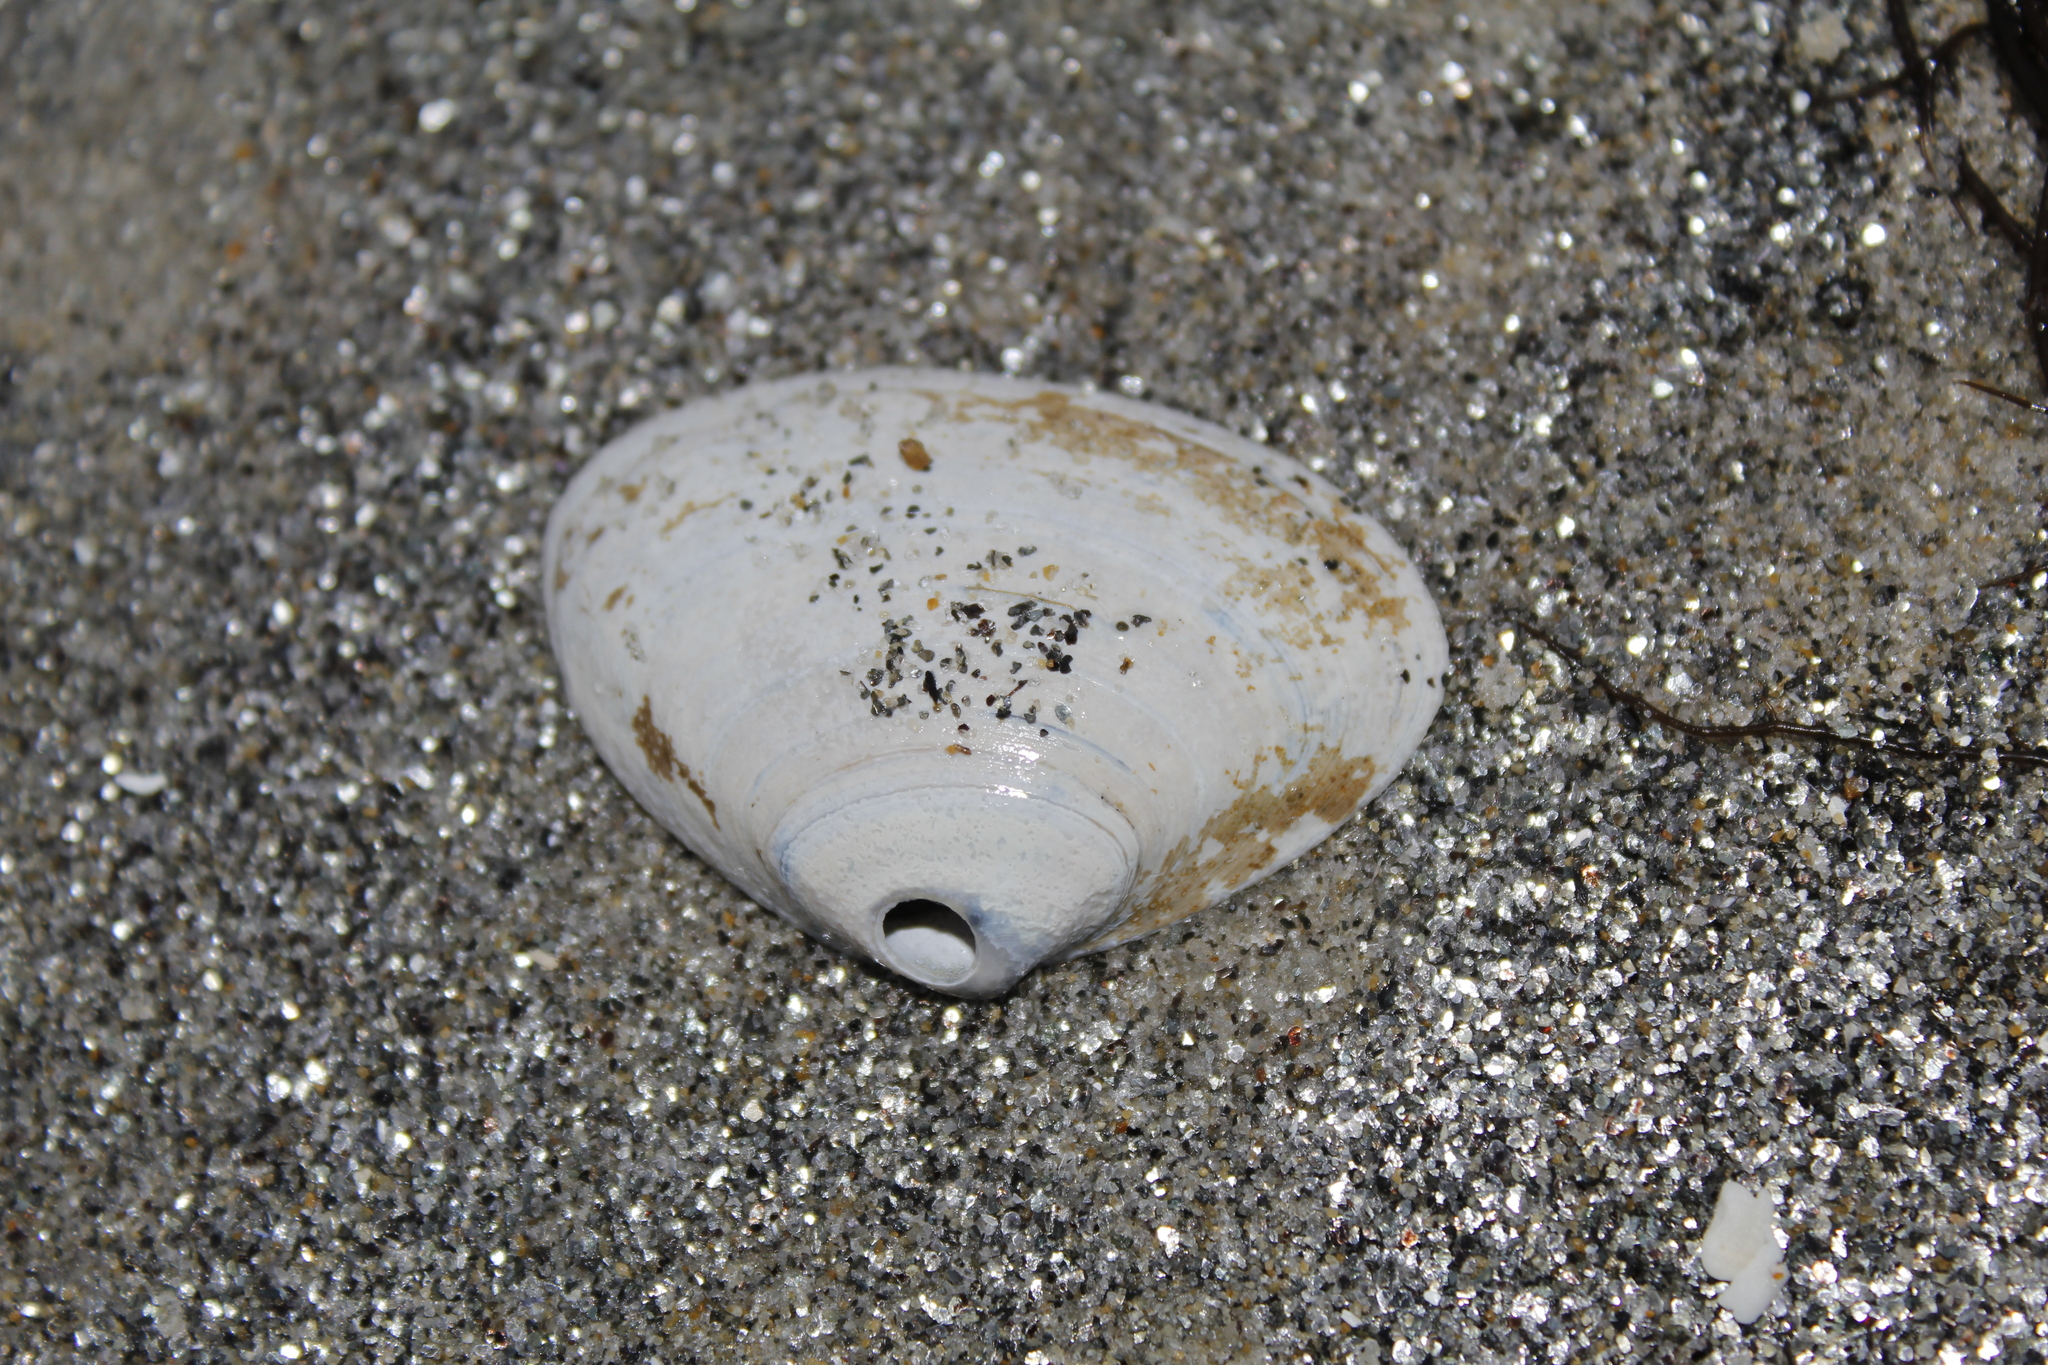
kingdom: Animalia
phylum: Mollusca
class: Bivalvia
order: Venerida
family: Mactridae
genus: Spisula
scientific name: Spisula solidissima
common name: Atlantic surf clam
